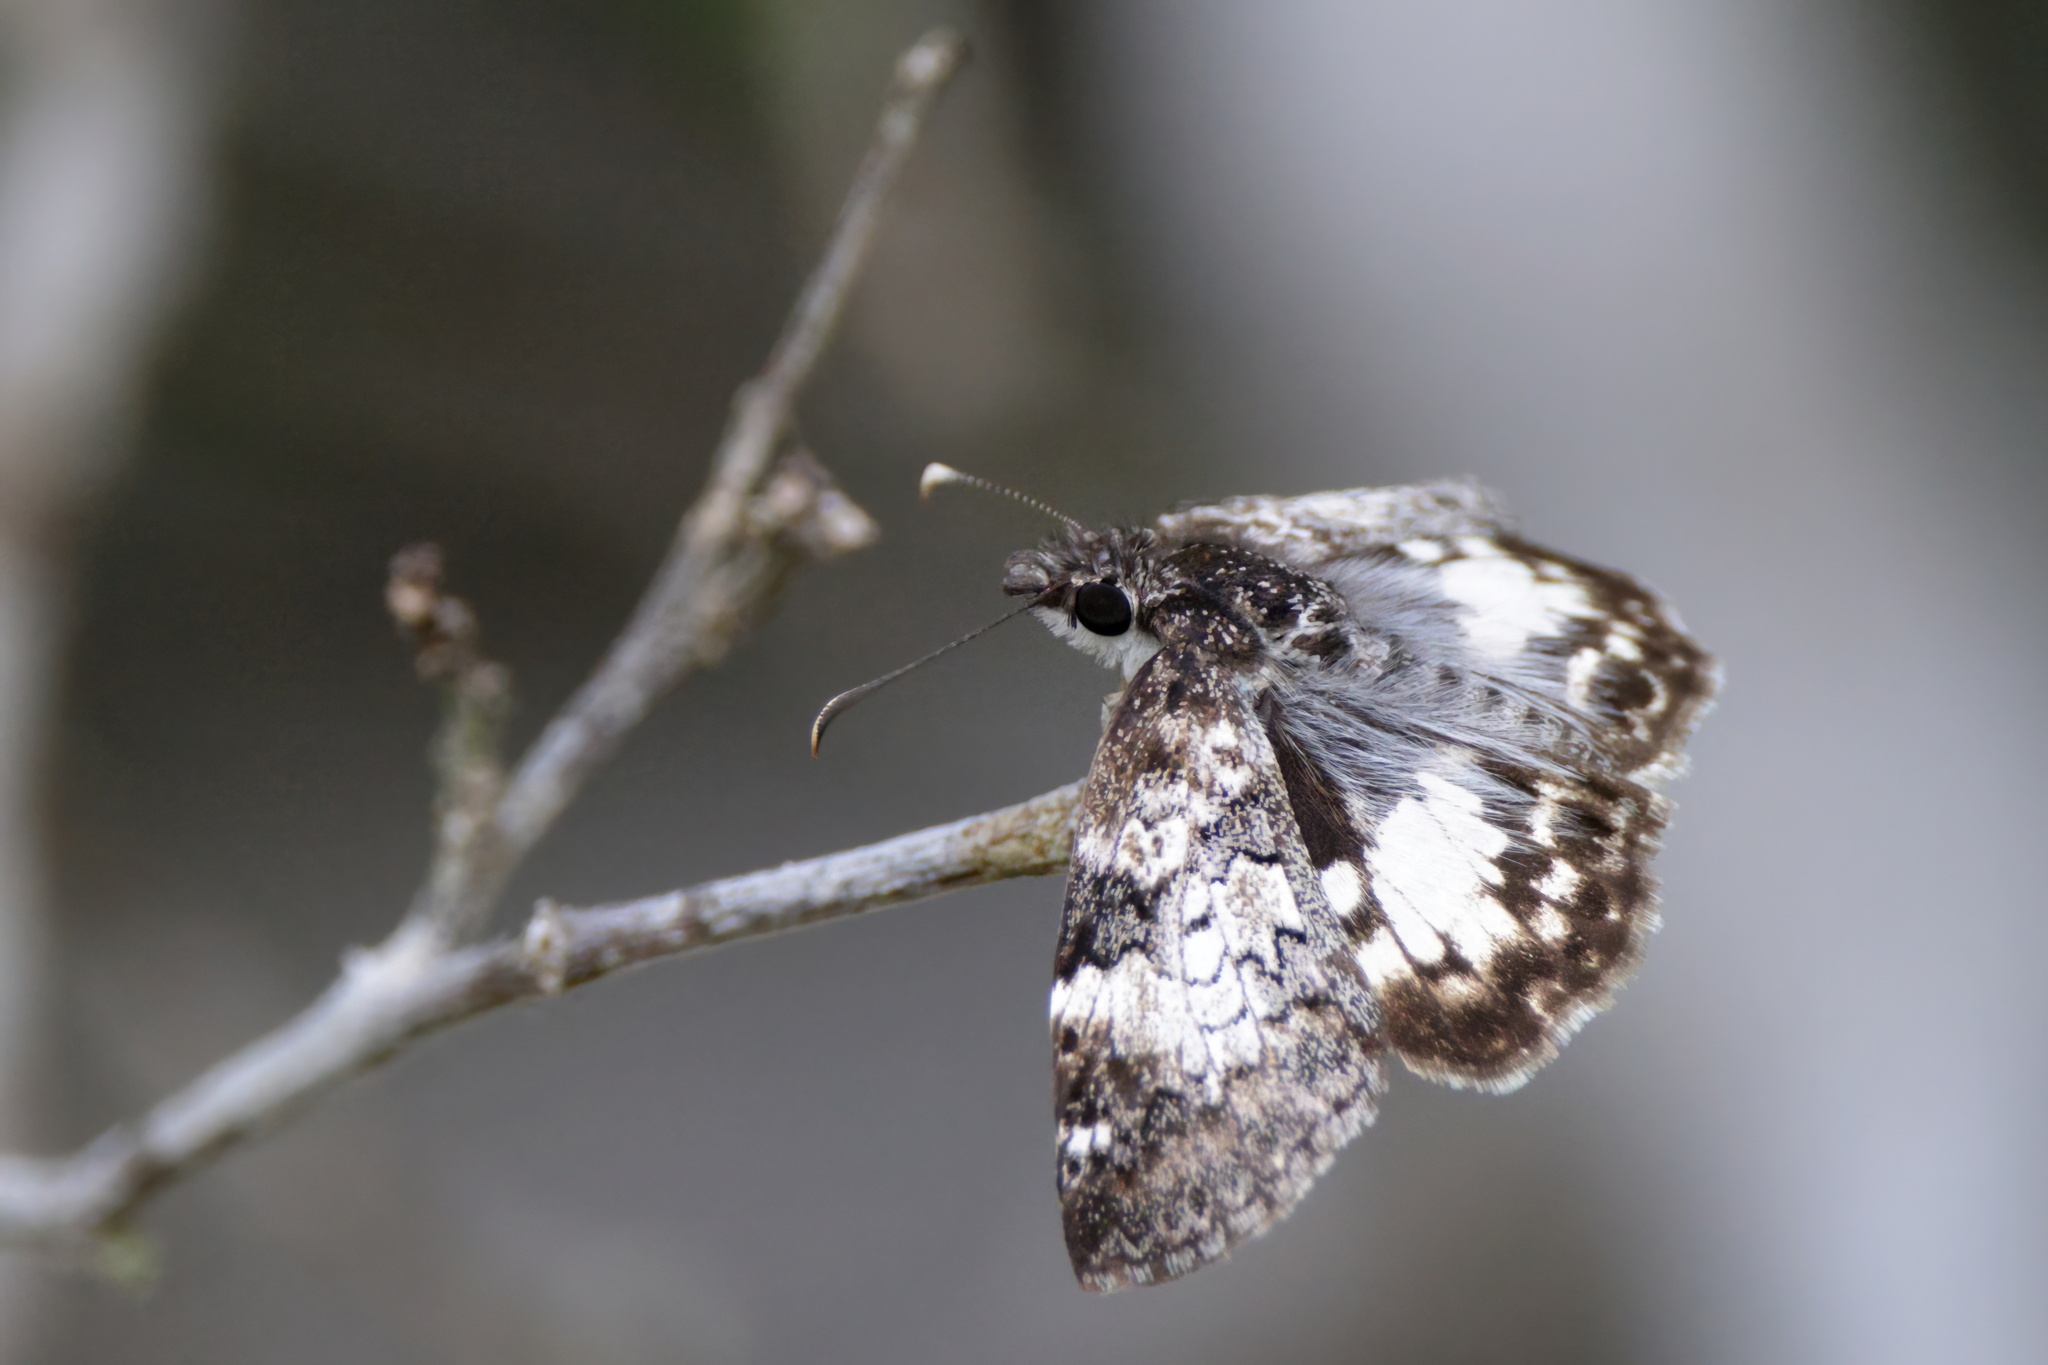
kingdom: Animalia
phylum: Arthropoda
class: Insecta
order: Lepidoptera
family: Hesperiidae
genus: Chiothion
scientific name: Chiothion georgina
